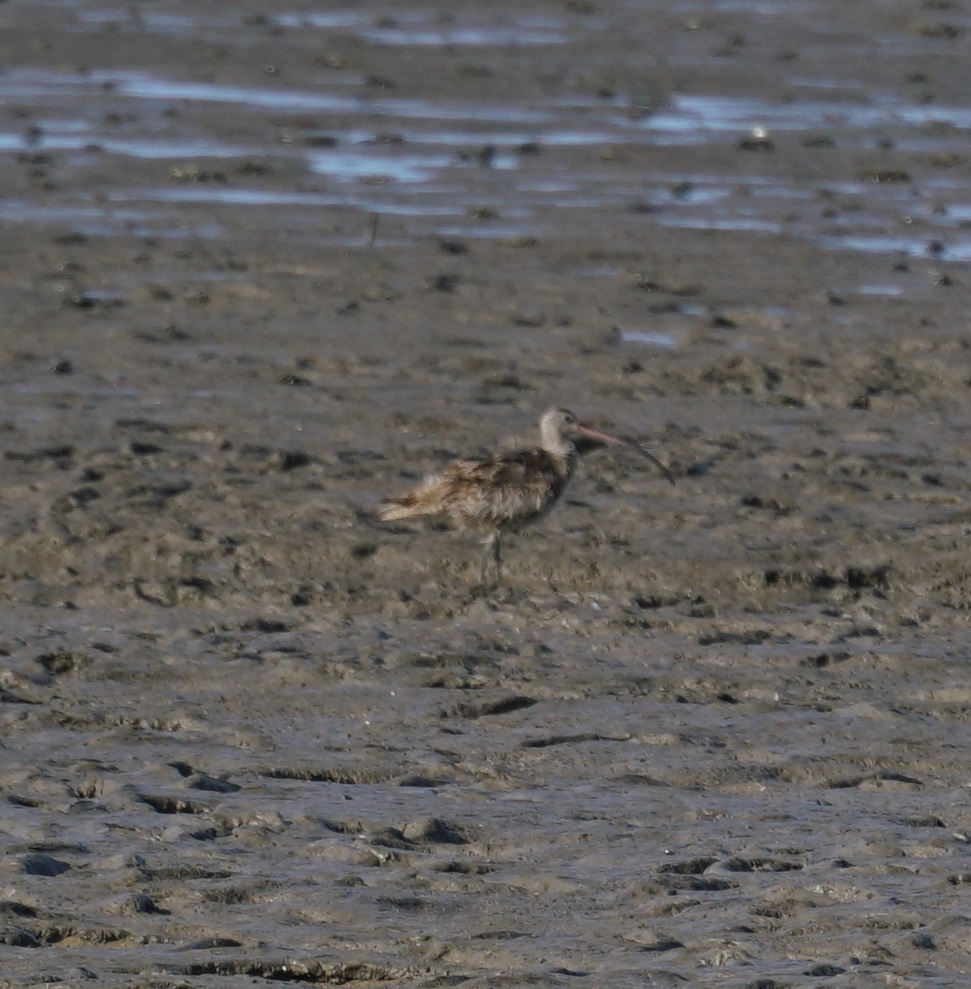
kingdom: Animalia
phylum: Chordata
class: Aves
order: Charadriiformes
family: Scolopacidae
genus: Numenius
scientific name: Numenius madagascariensis
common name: Far eastern curlew
